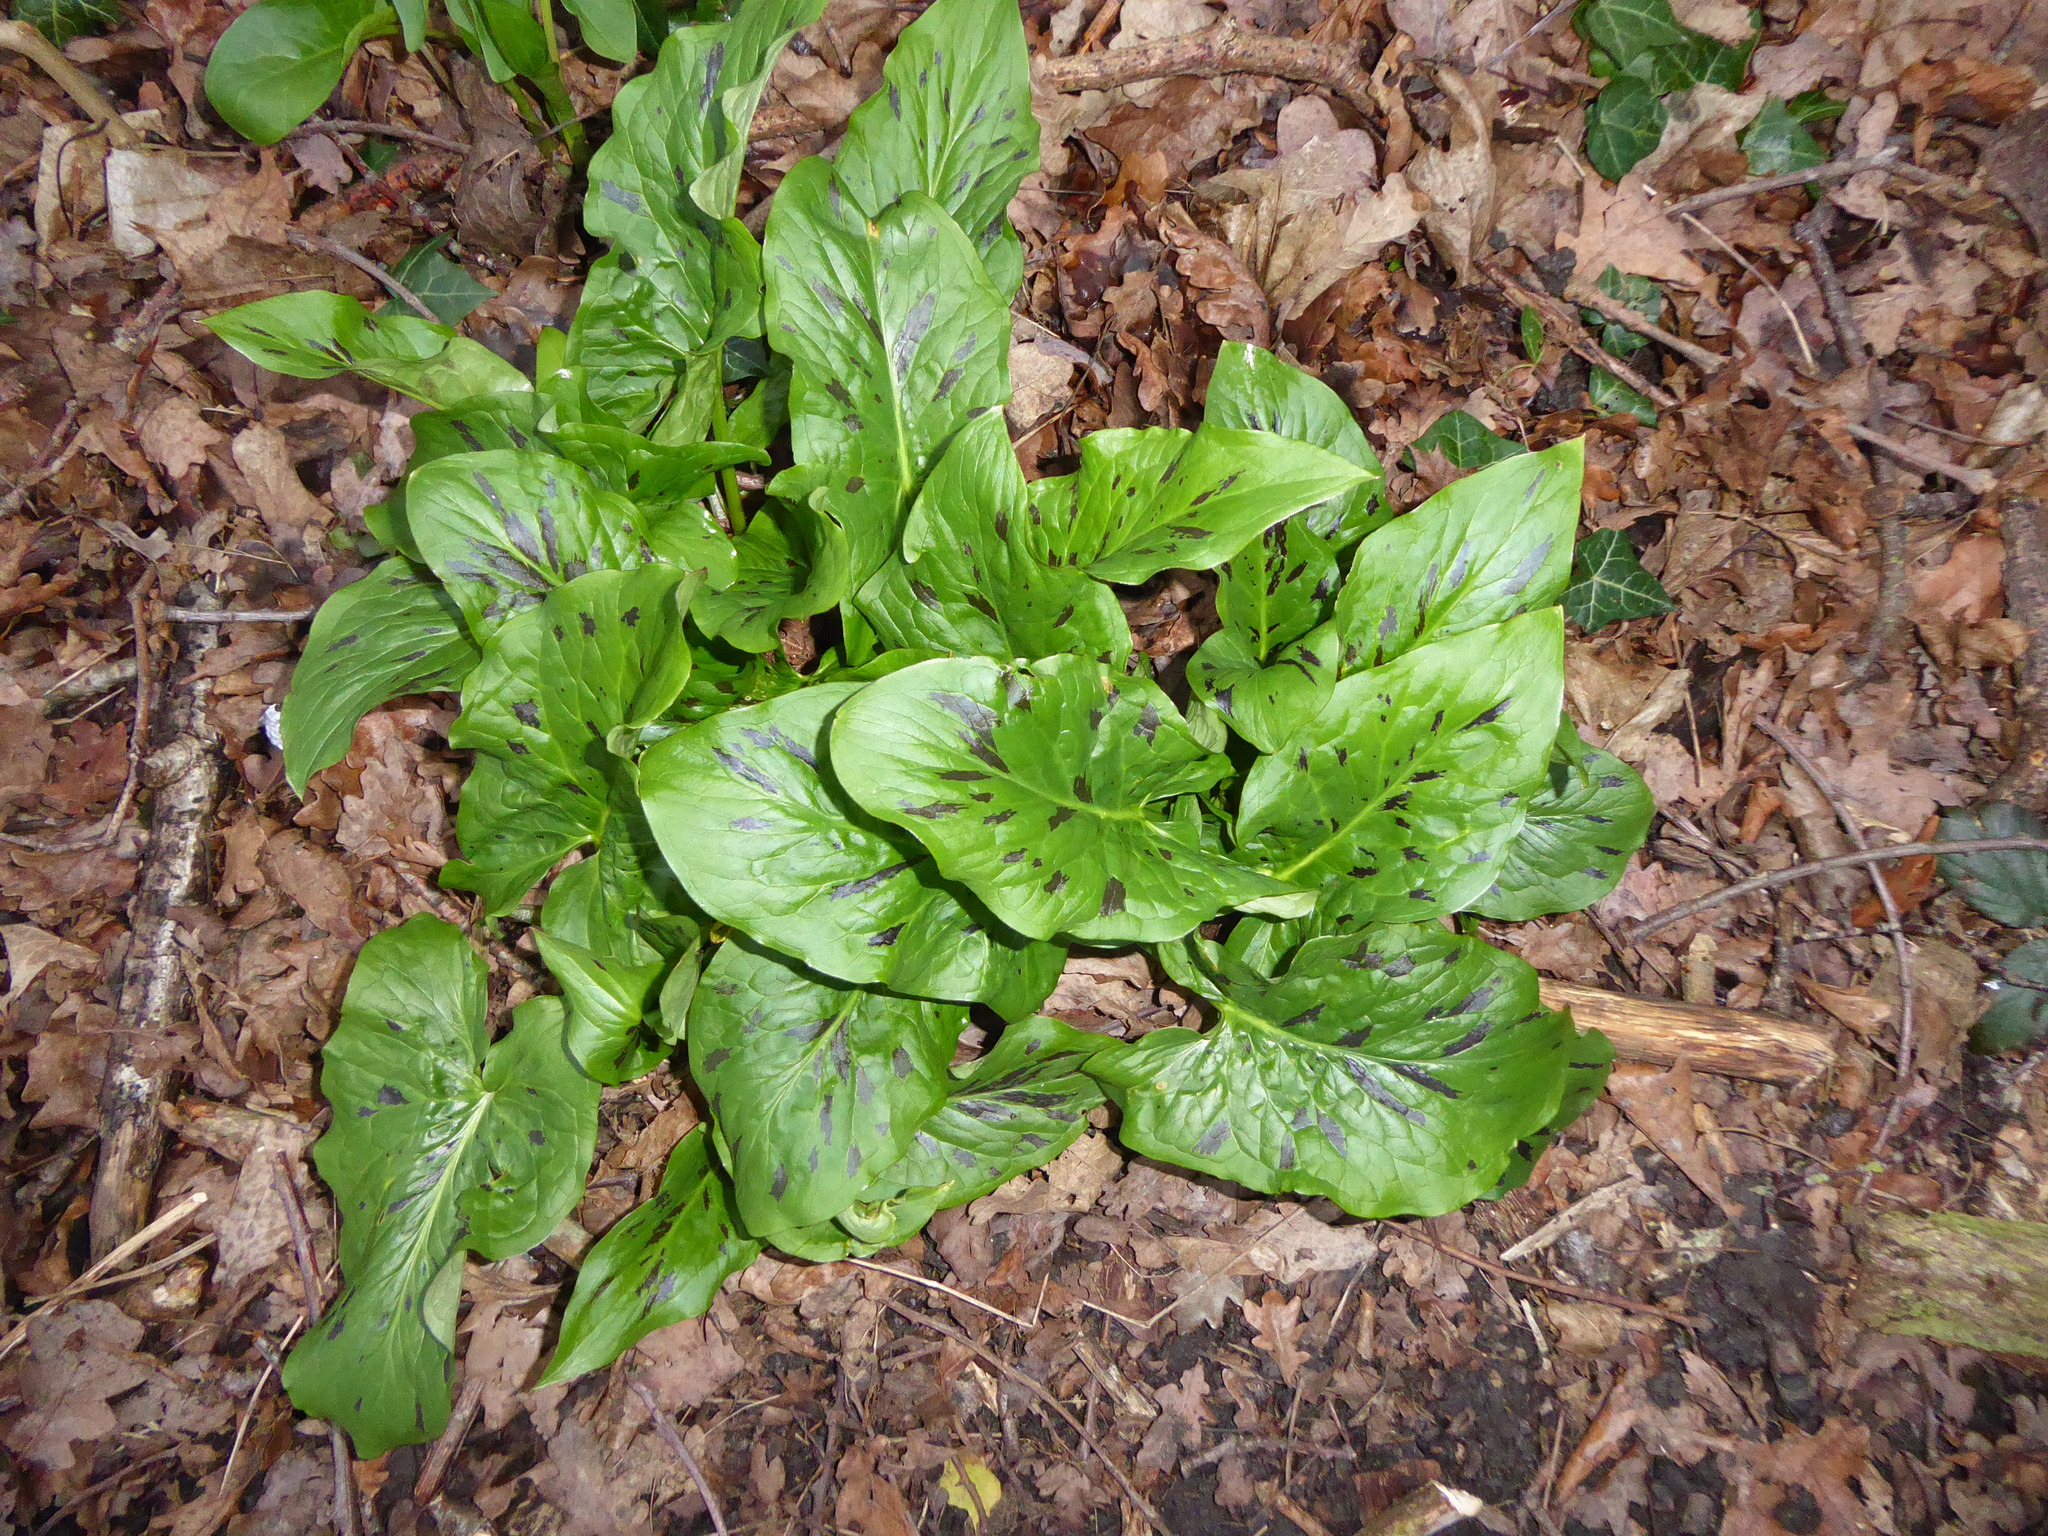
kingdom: Plantae
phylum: Tracheophyta
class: Liliopsida
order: Alismatales
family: Araceae
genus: Arum
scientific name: Arum maculatum
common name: Lords-and-ladies
